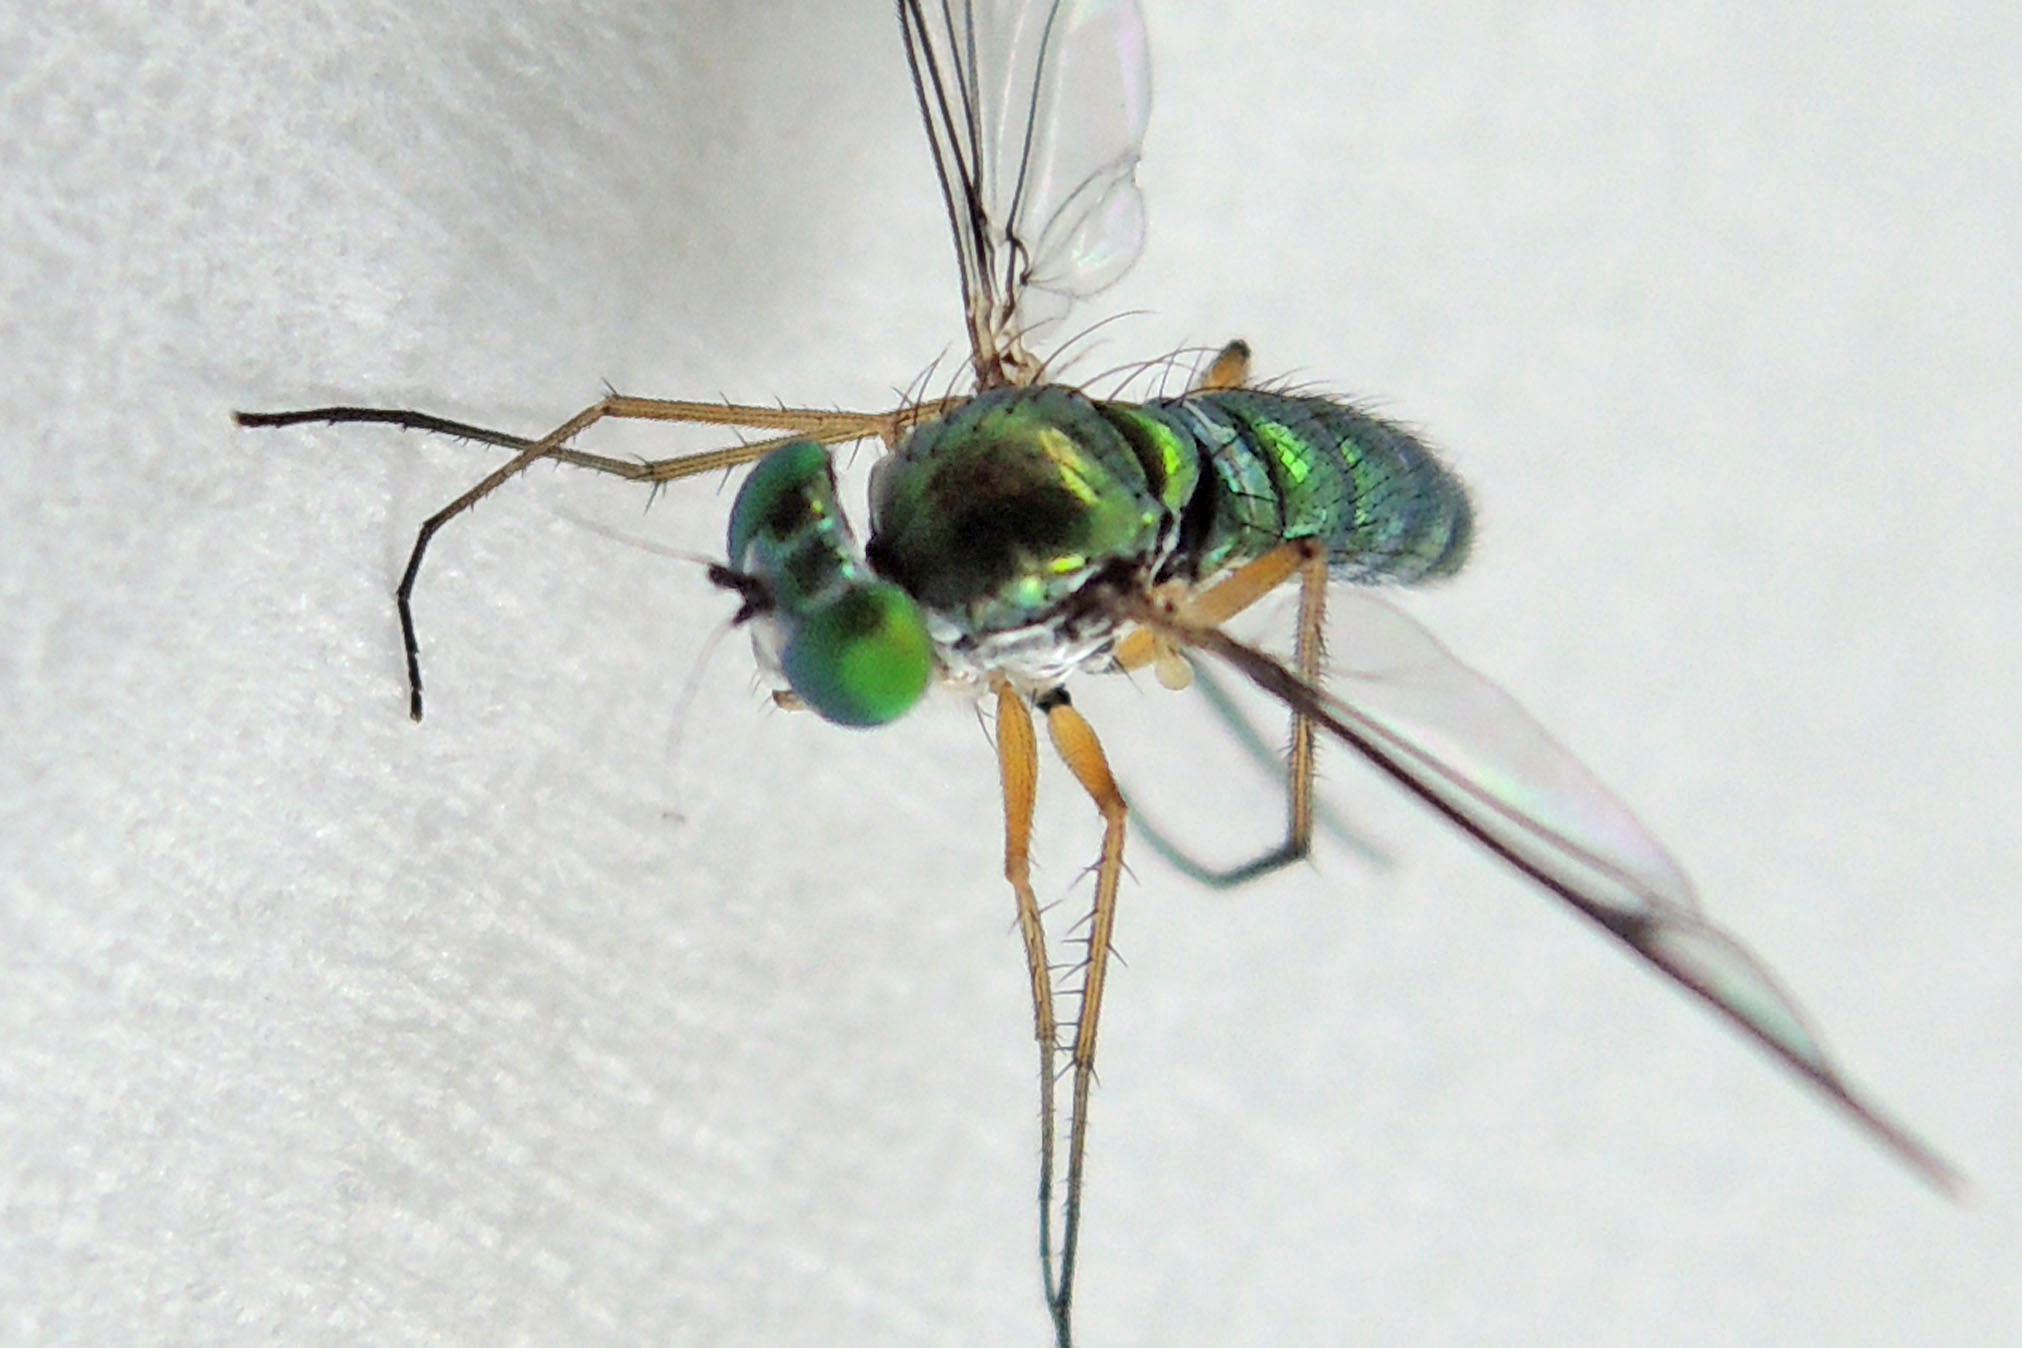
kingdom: Animalia
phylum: Arthropoda
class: Insecta
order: Diptera
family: Dolichopodidae
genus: Condylostylus
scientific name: Condylostylus
